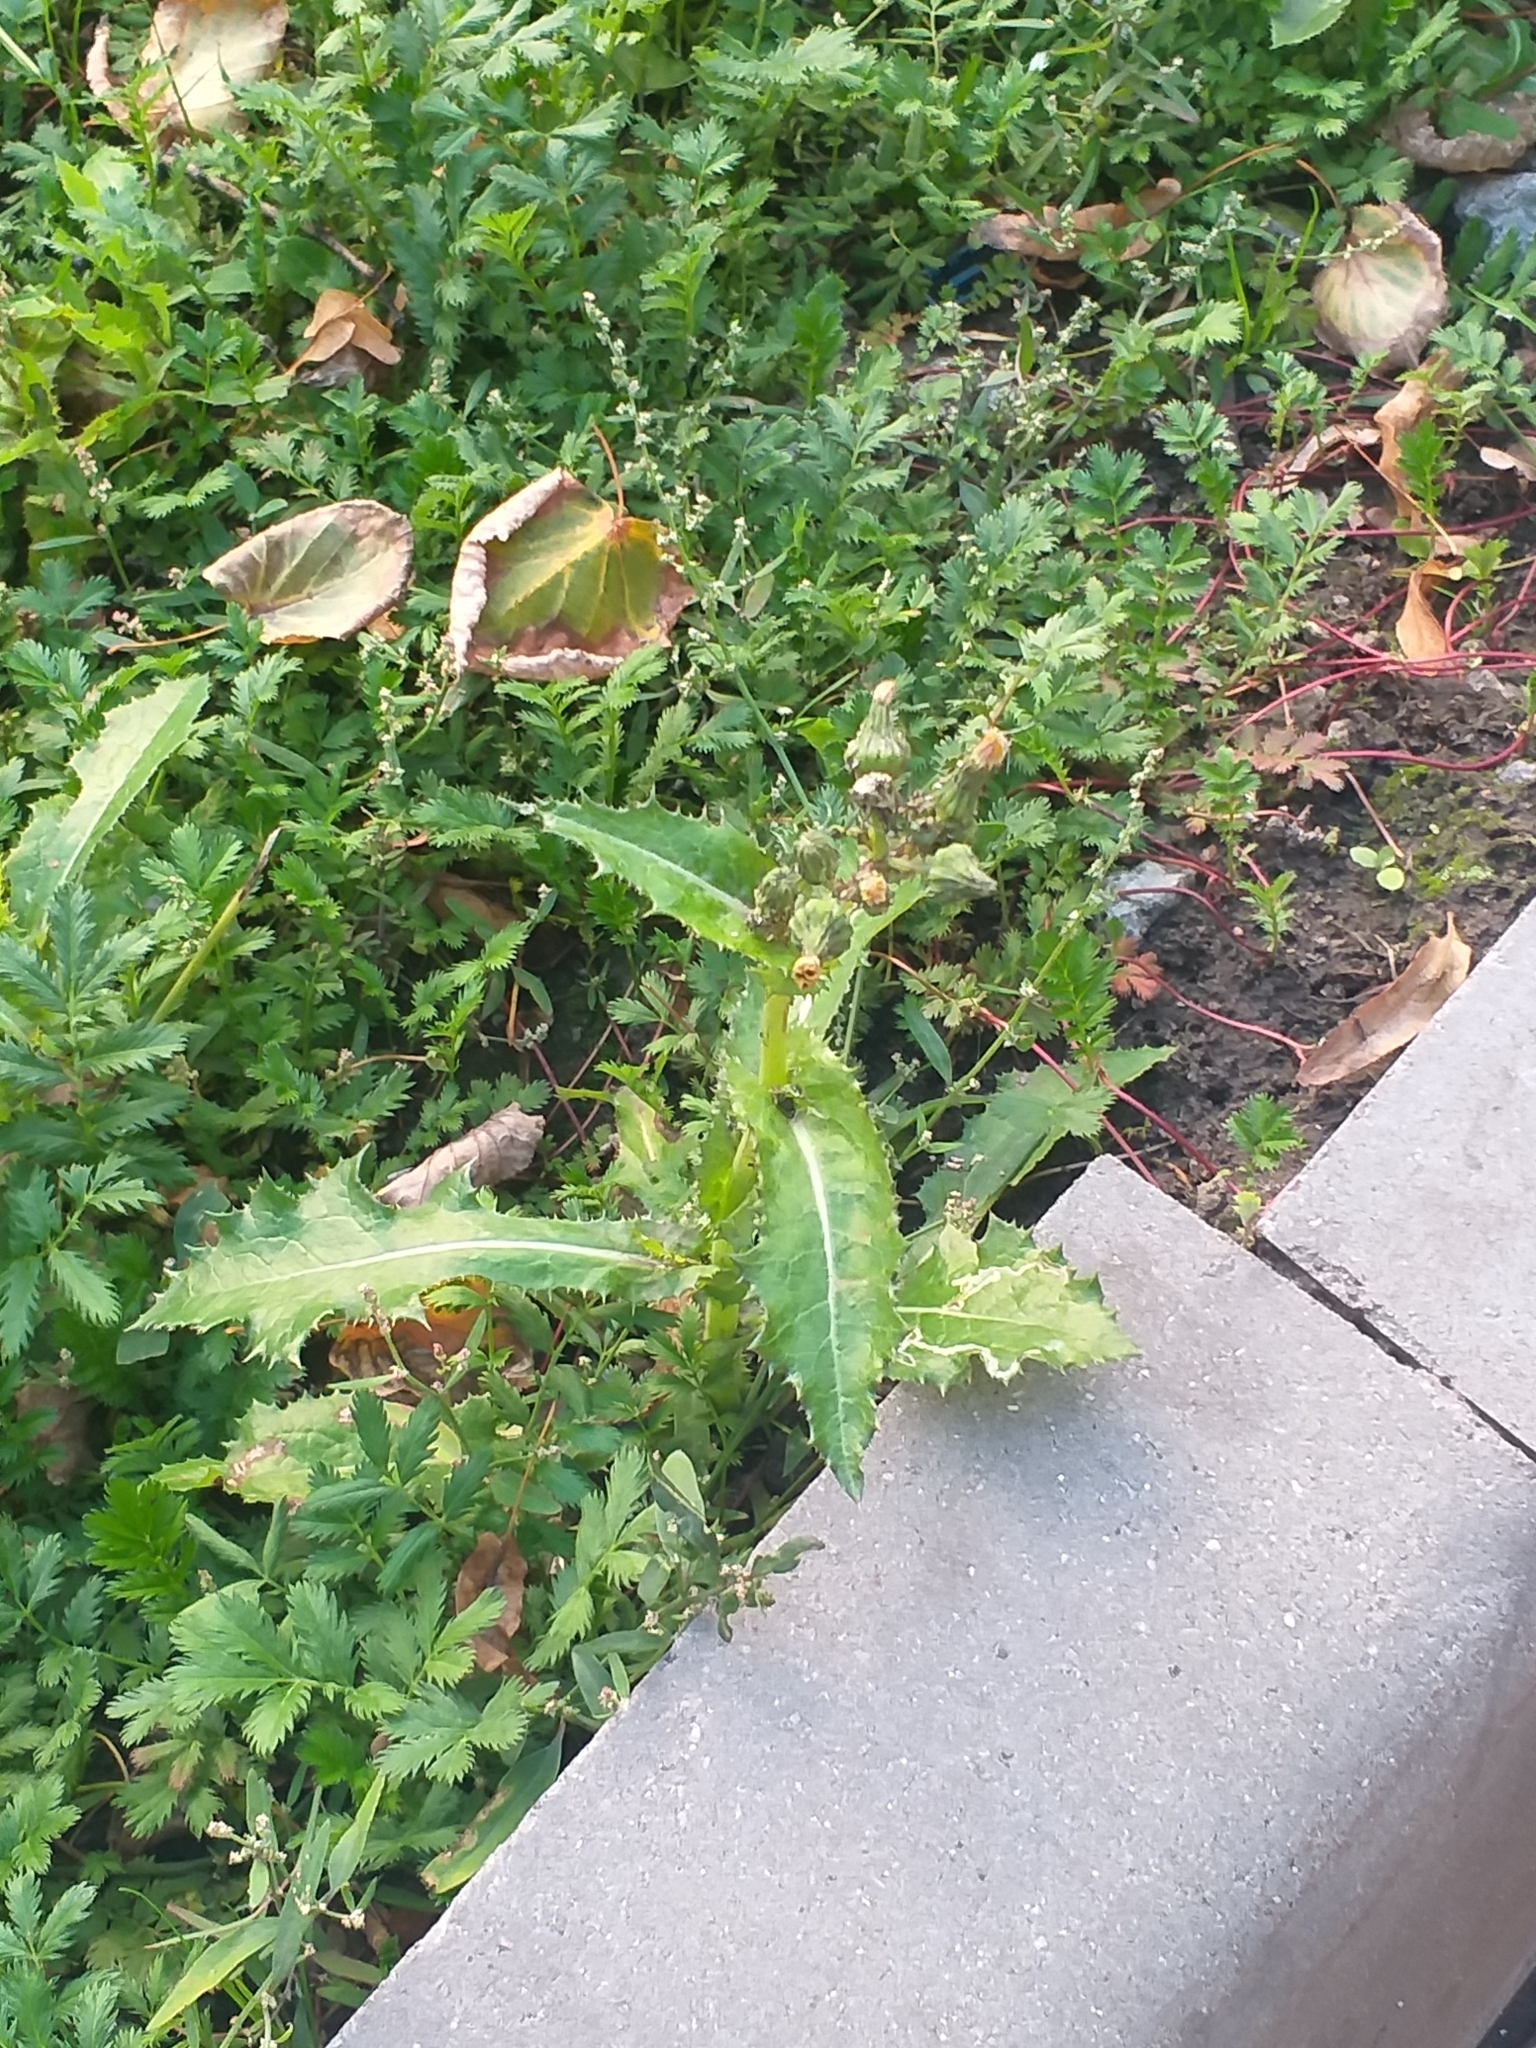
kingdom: Plantae
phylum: Tracheophyta
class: Magnoliopsida
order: Asterales
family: Asteraceae
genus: Sonchus
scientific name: Sonchus asper
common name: Prickly sow-thistle
